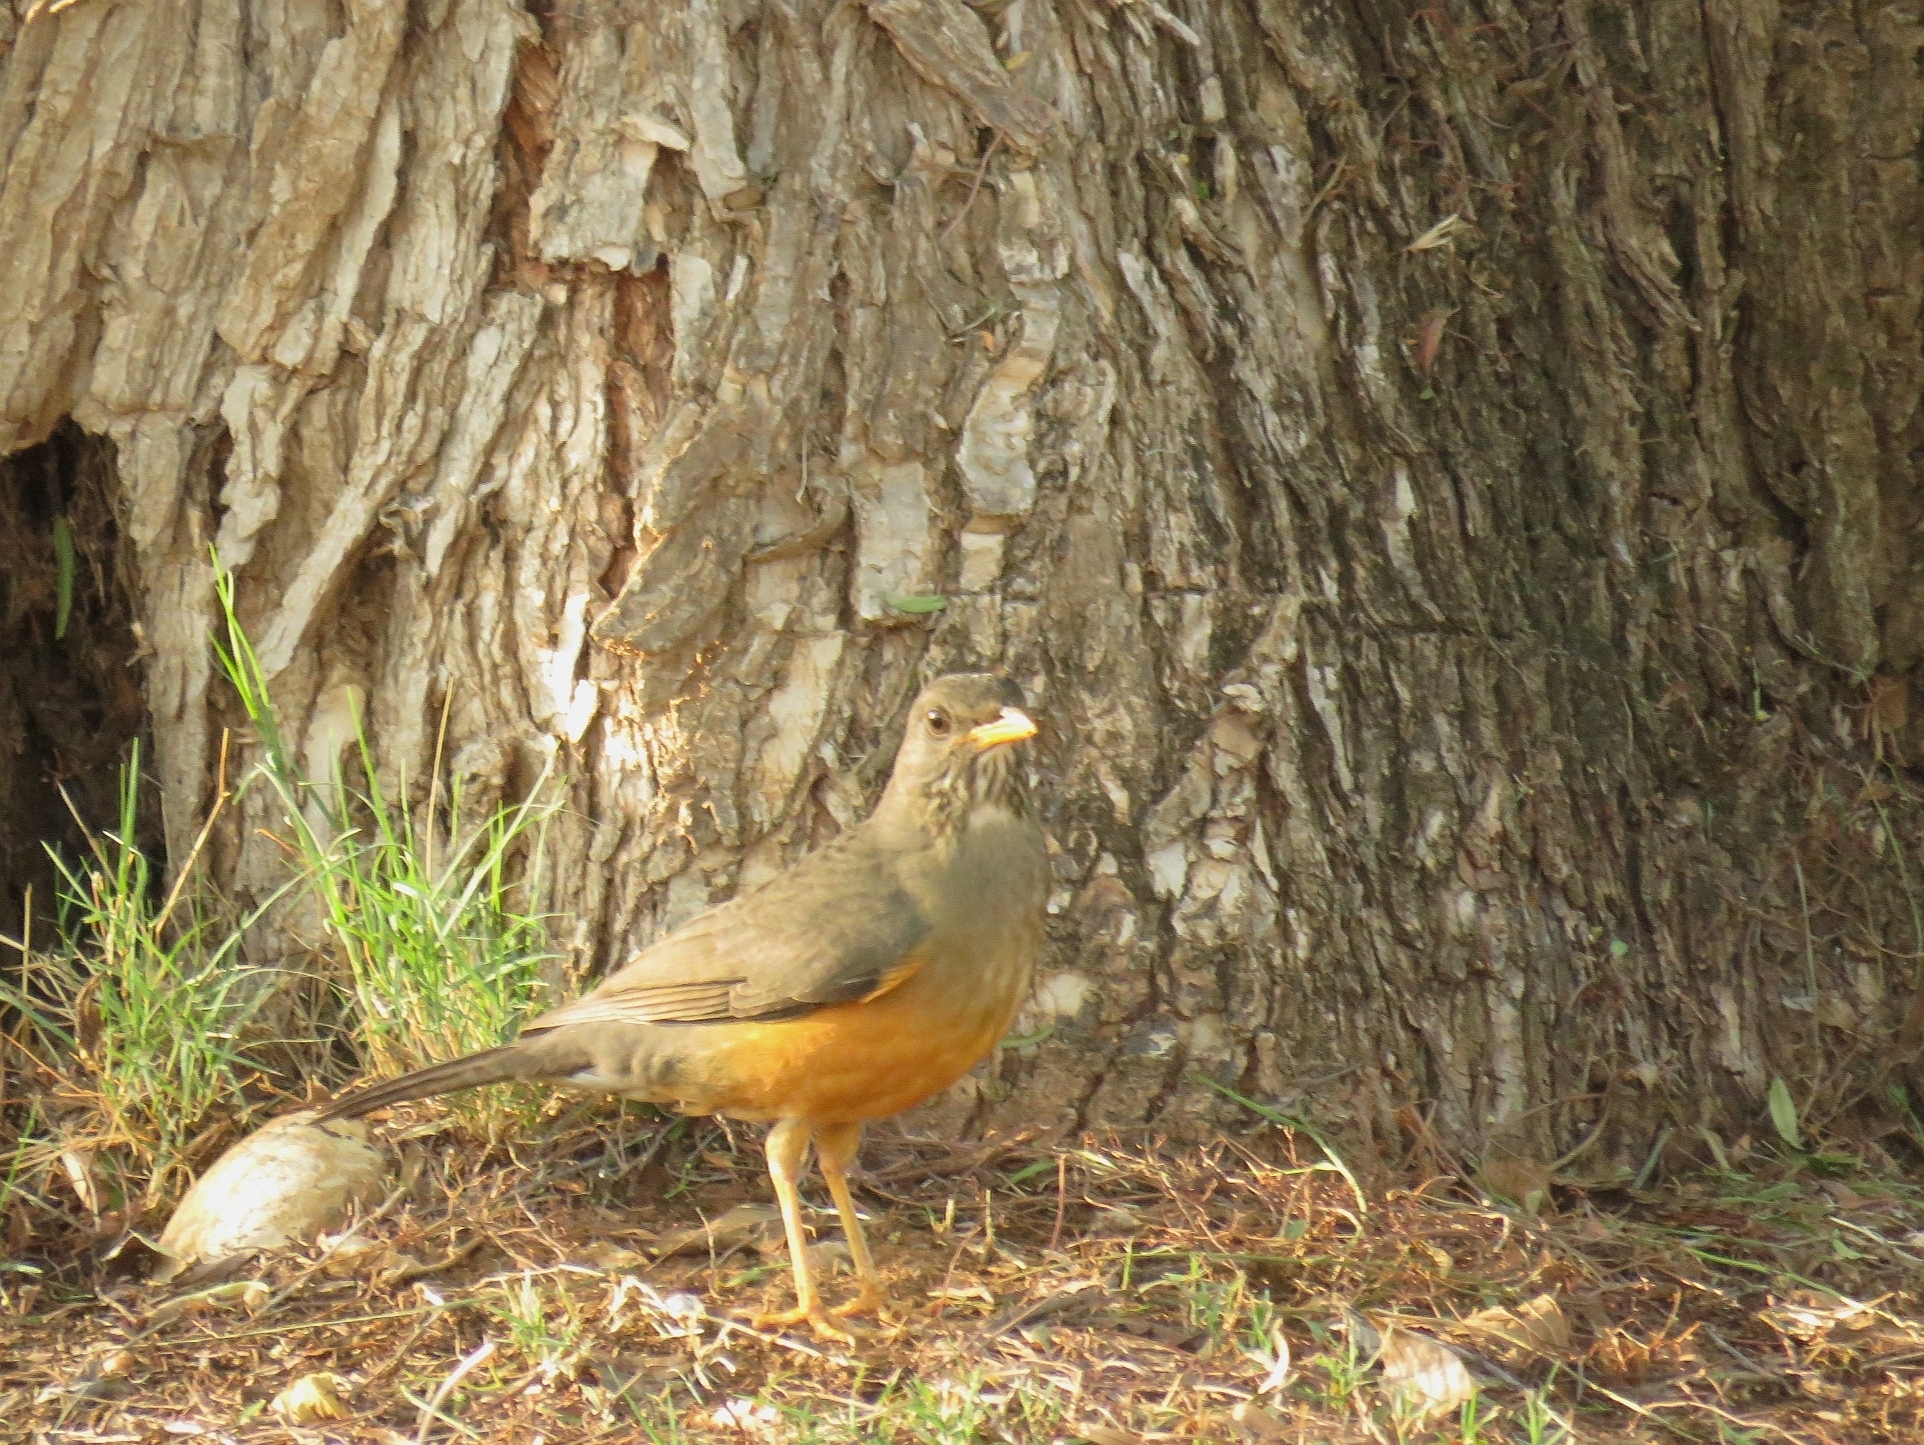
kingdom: Animalia
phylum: Chordata
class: Aves
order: Passeriformes
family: Turdidae
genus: Turdus
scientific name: Turdus olivaceus
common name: Olive thrush
